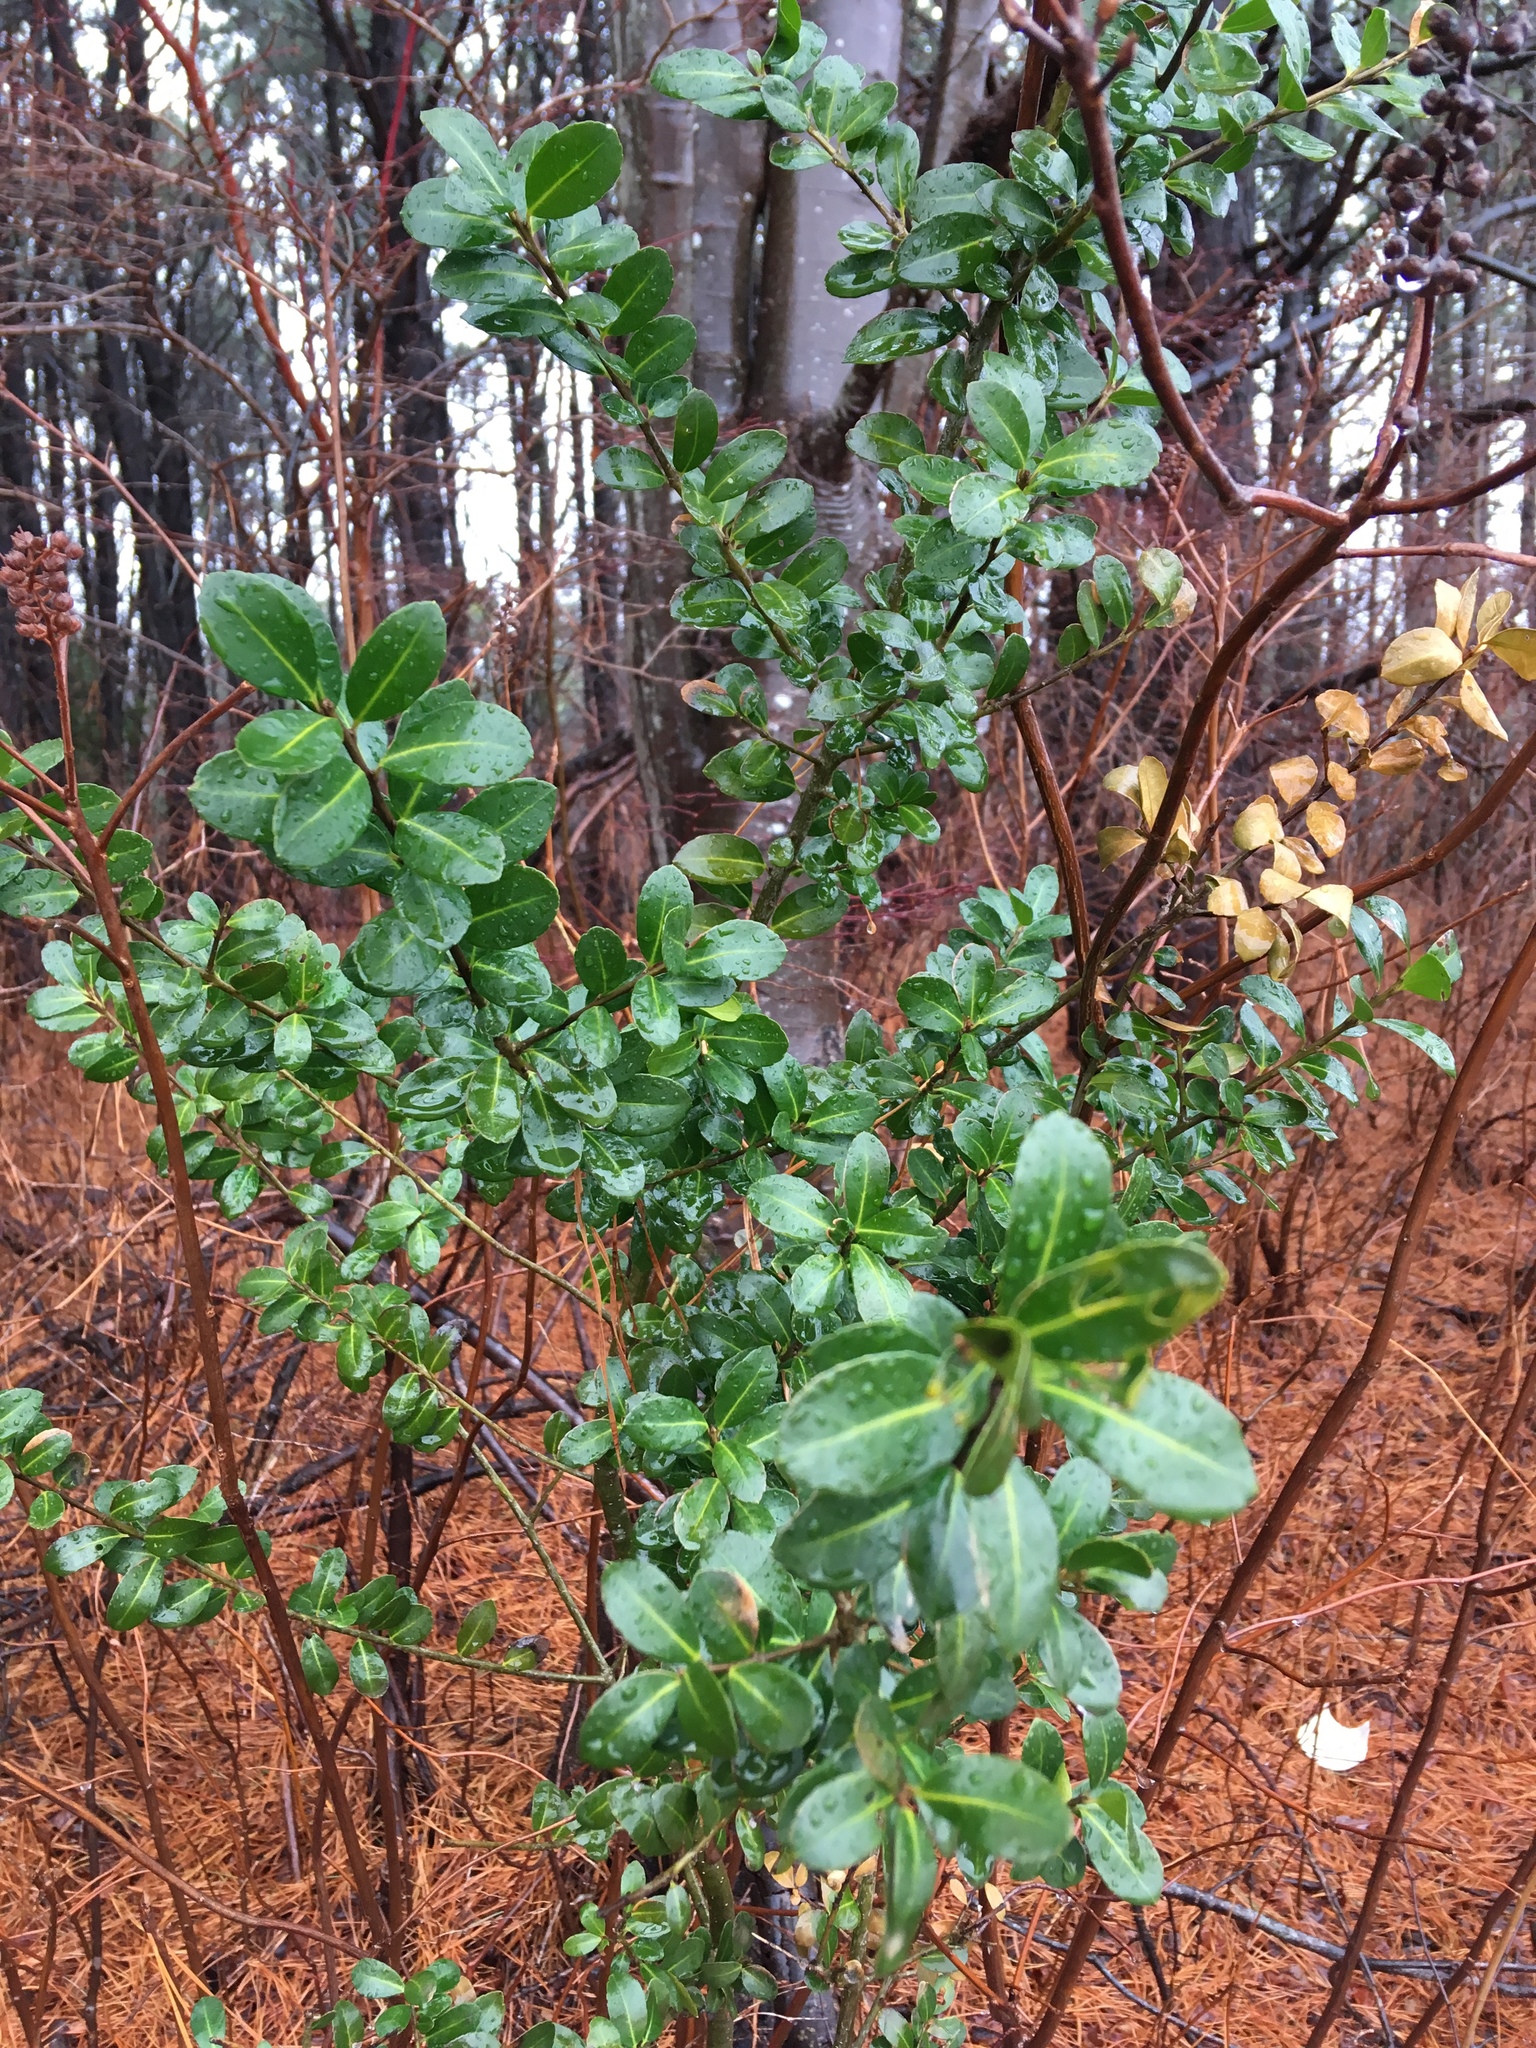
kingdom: Plantae
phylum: Tracheophyta
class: Magnoliopsida
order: Aquifoliales
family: Aquifoliaceae
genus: Ilex
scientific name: Ilex crenata
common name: Japanese holly
